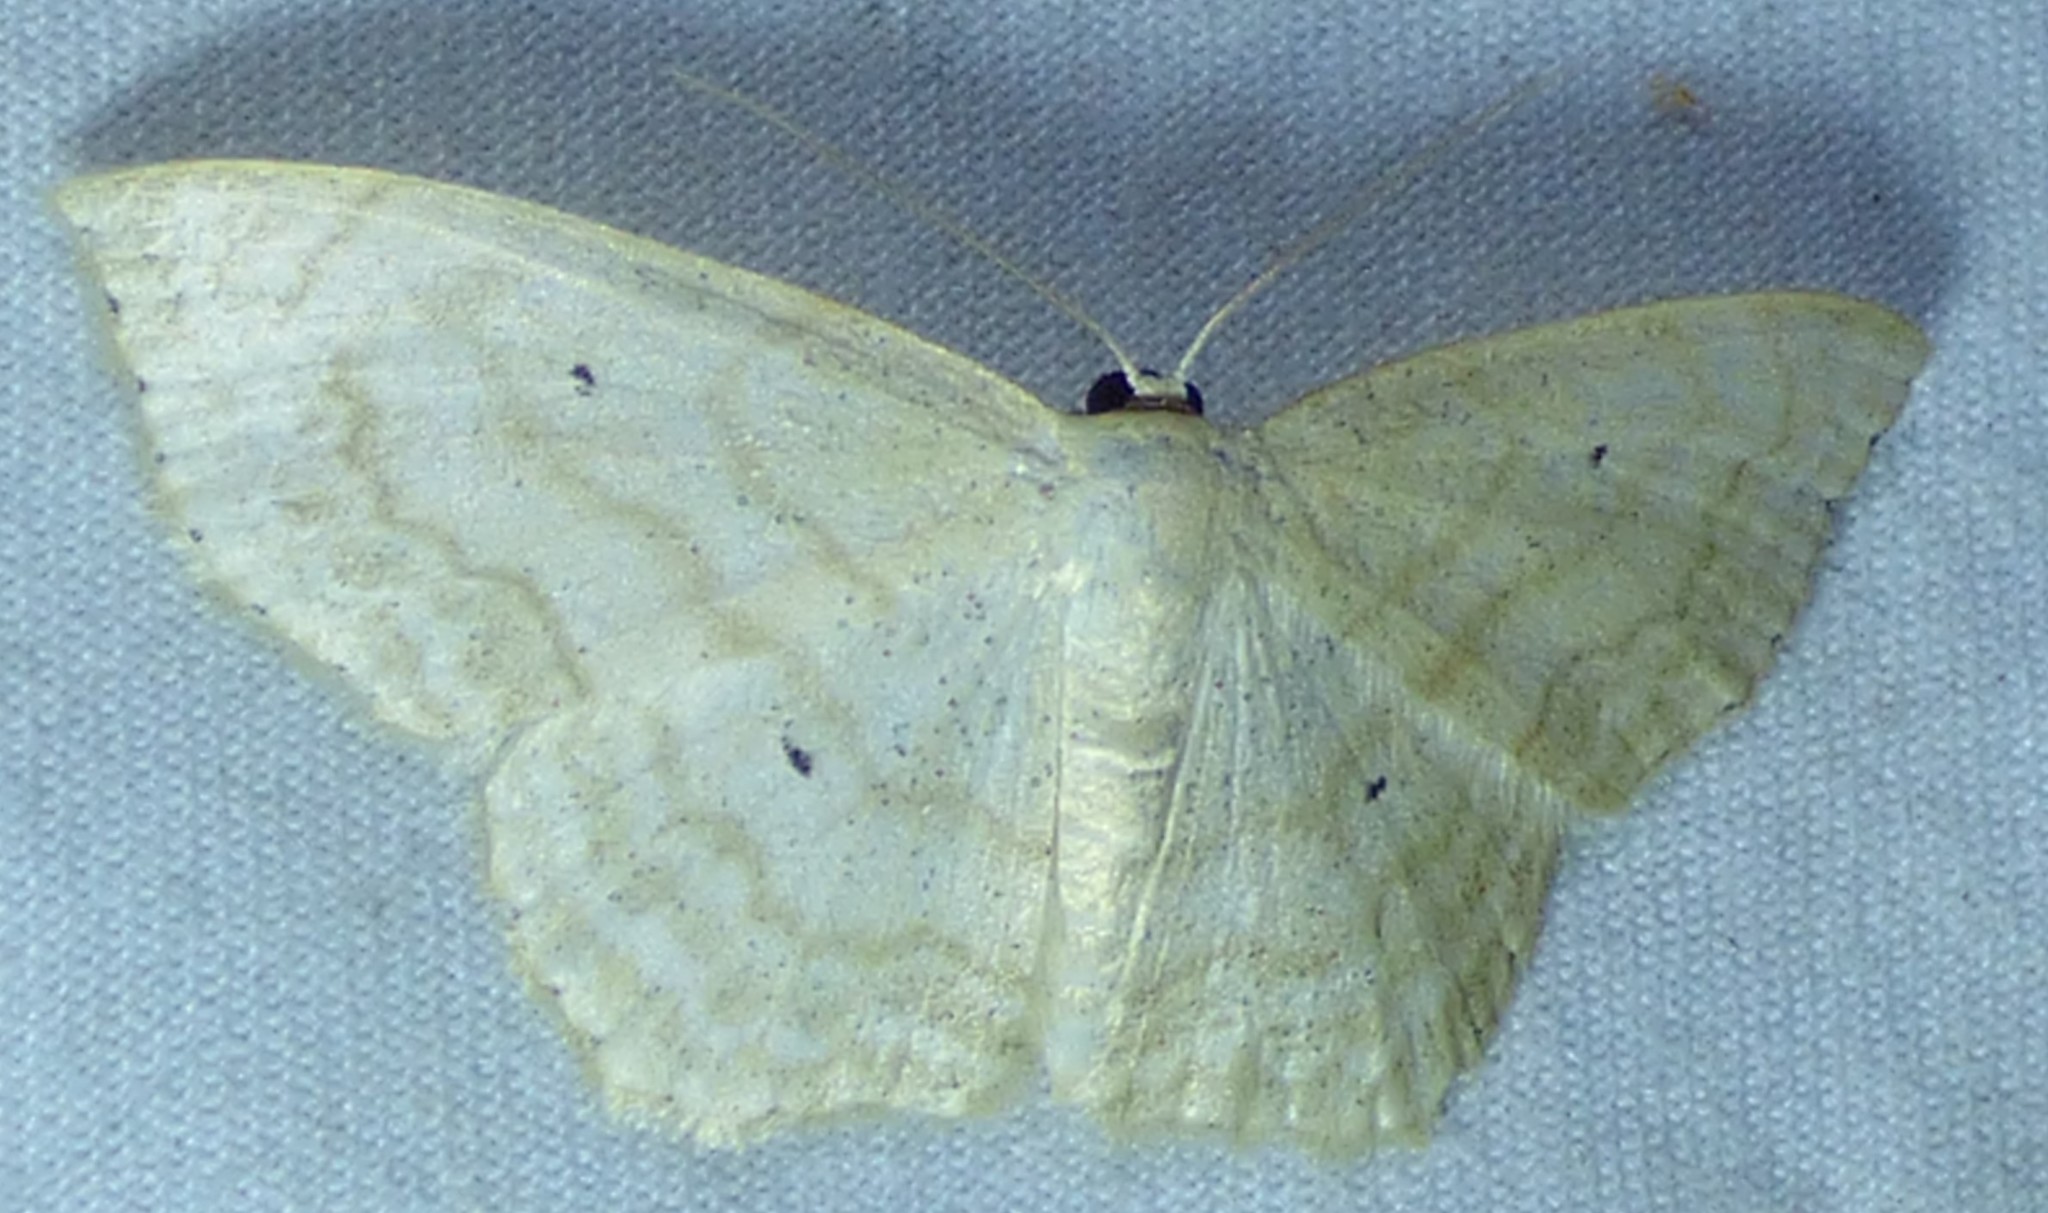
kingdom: Animalia
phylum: Arthropoda
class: Insecta
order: Lepidoptera
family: Geometridae
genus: Scopula
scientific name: Scopula limboundata
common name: Large lace border
